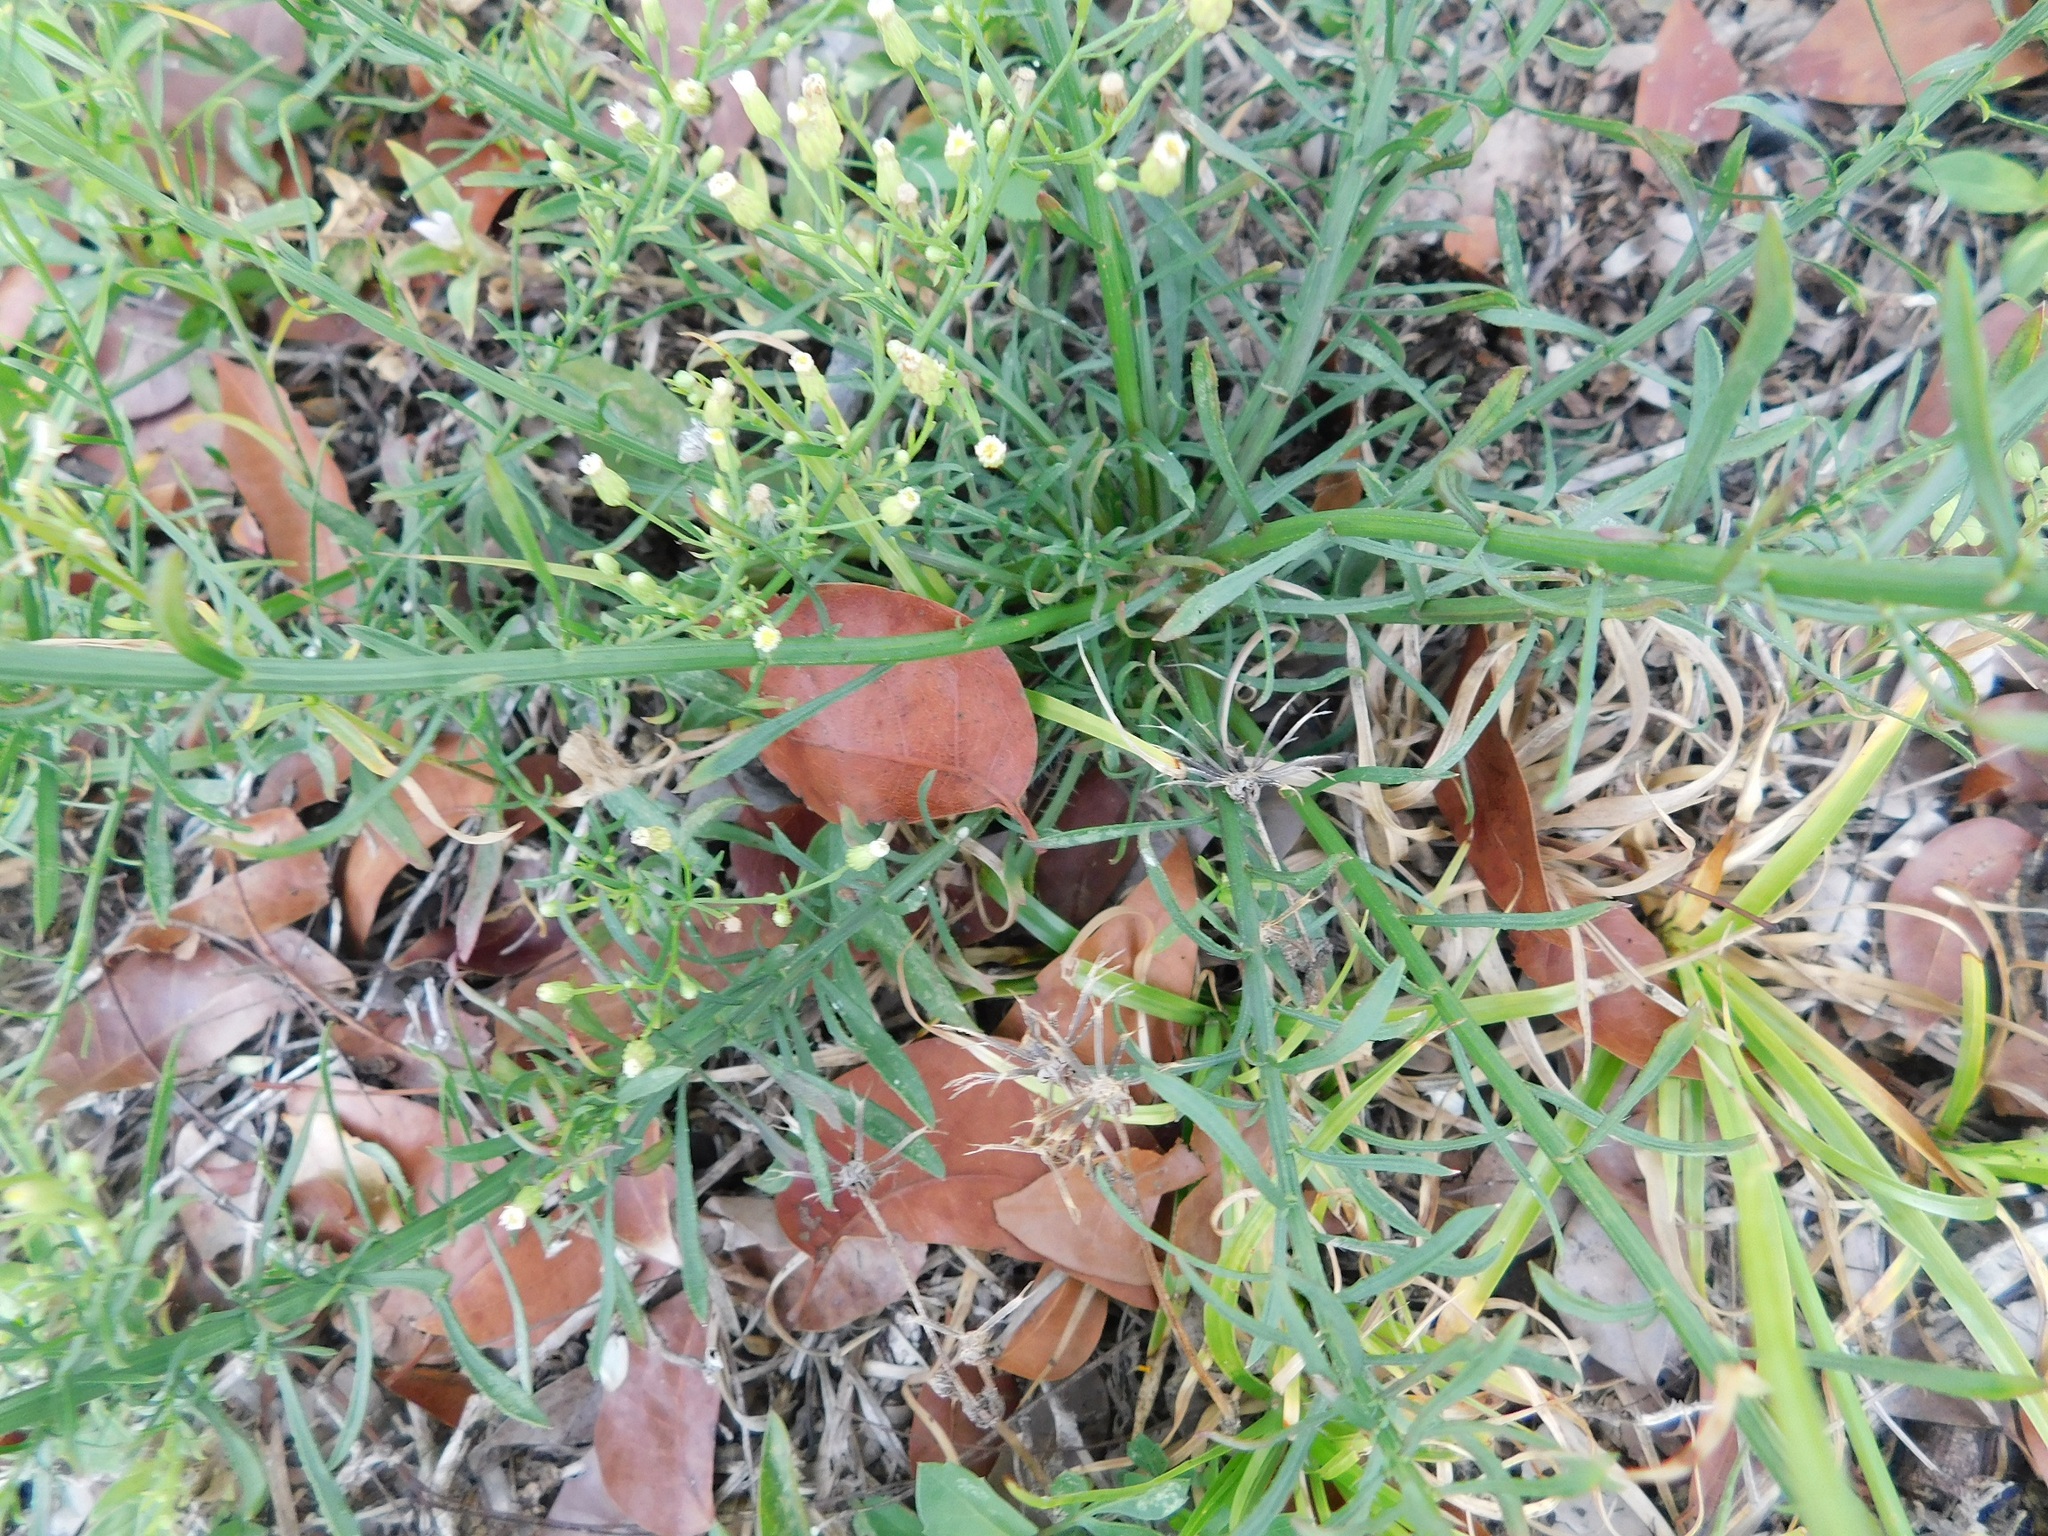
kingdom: Plantae
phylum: Tracheophyta
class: Magnoliopsida
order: Asterales
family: Asteraceae
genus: Erigeron
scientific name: Erigeron canadensis
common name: Canadian fleabane
